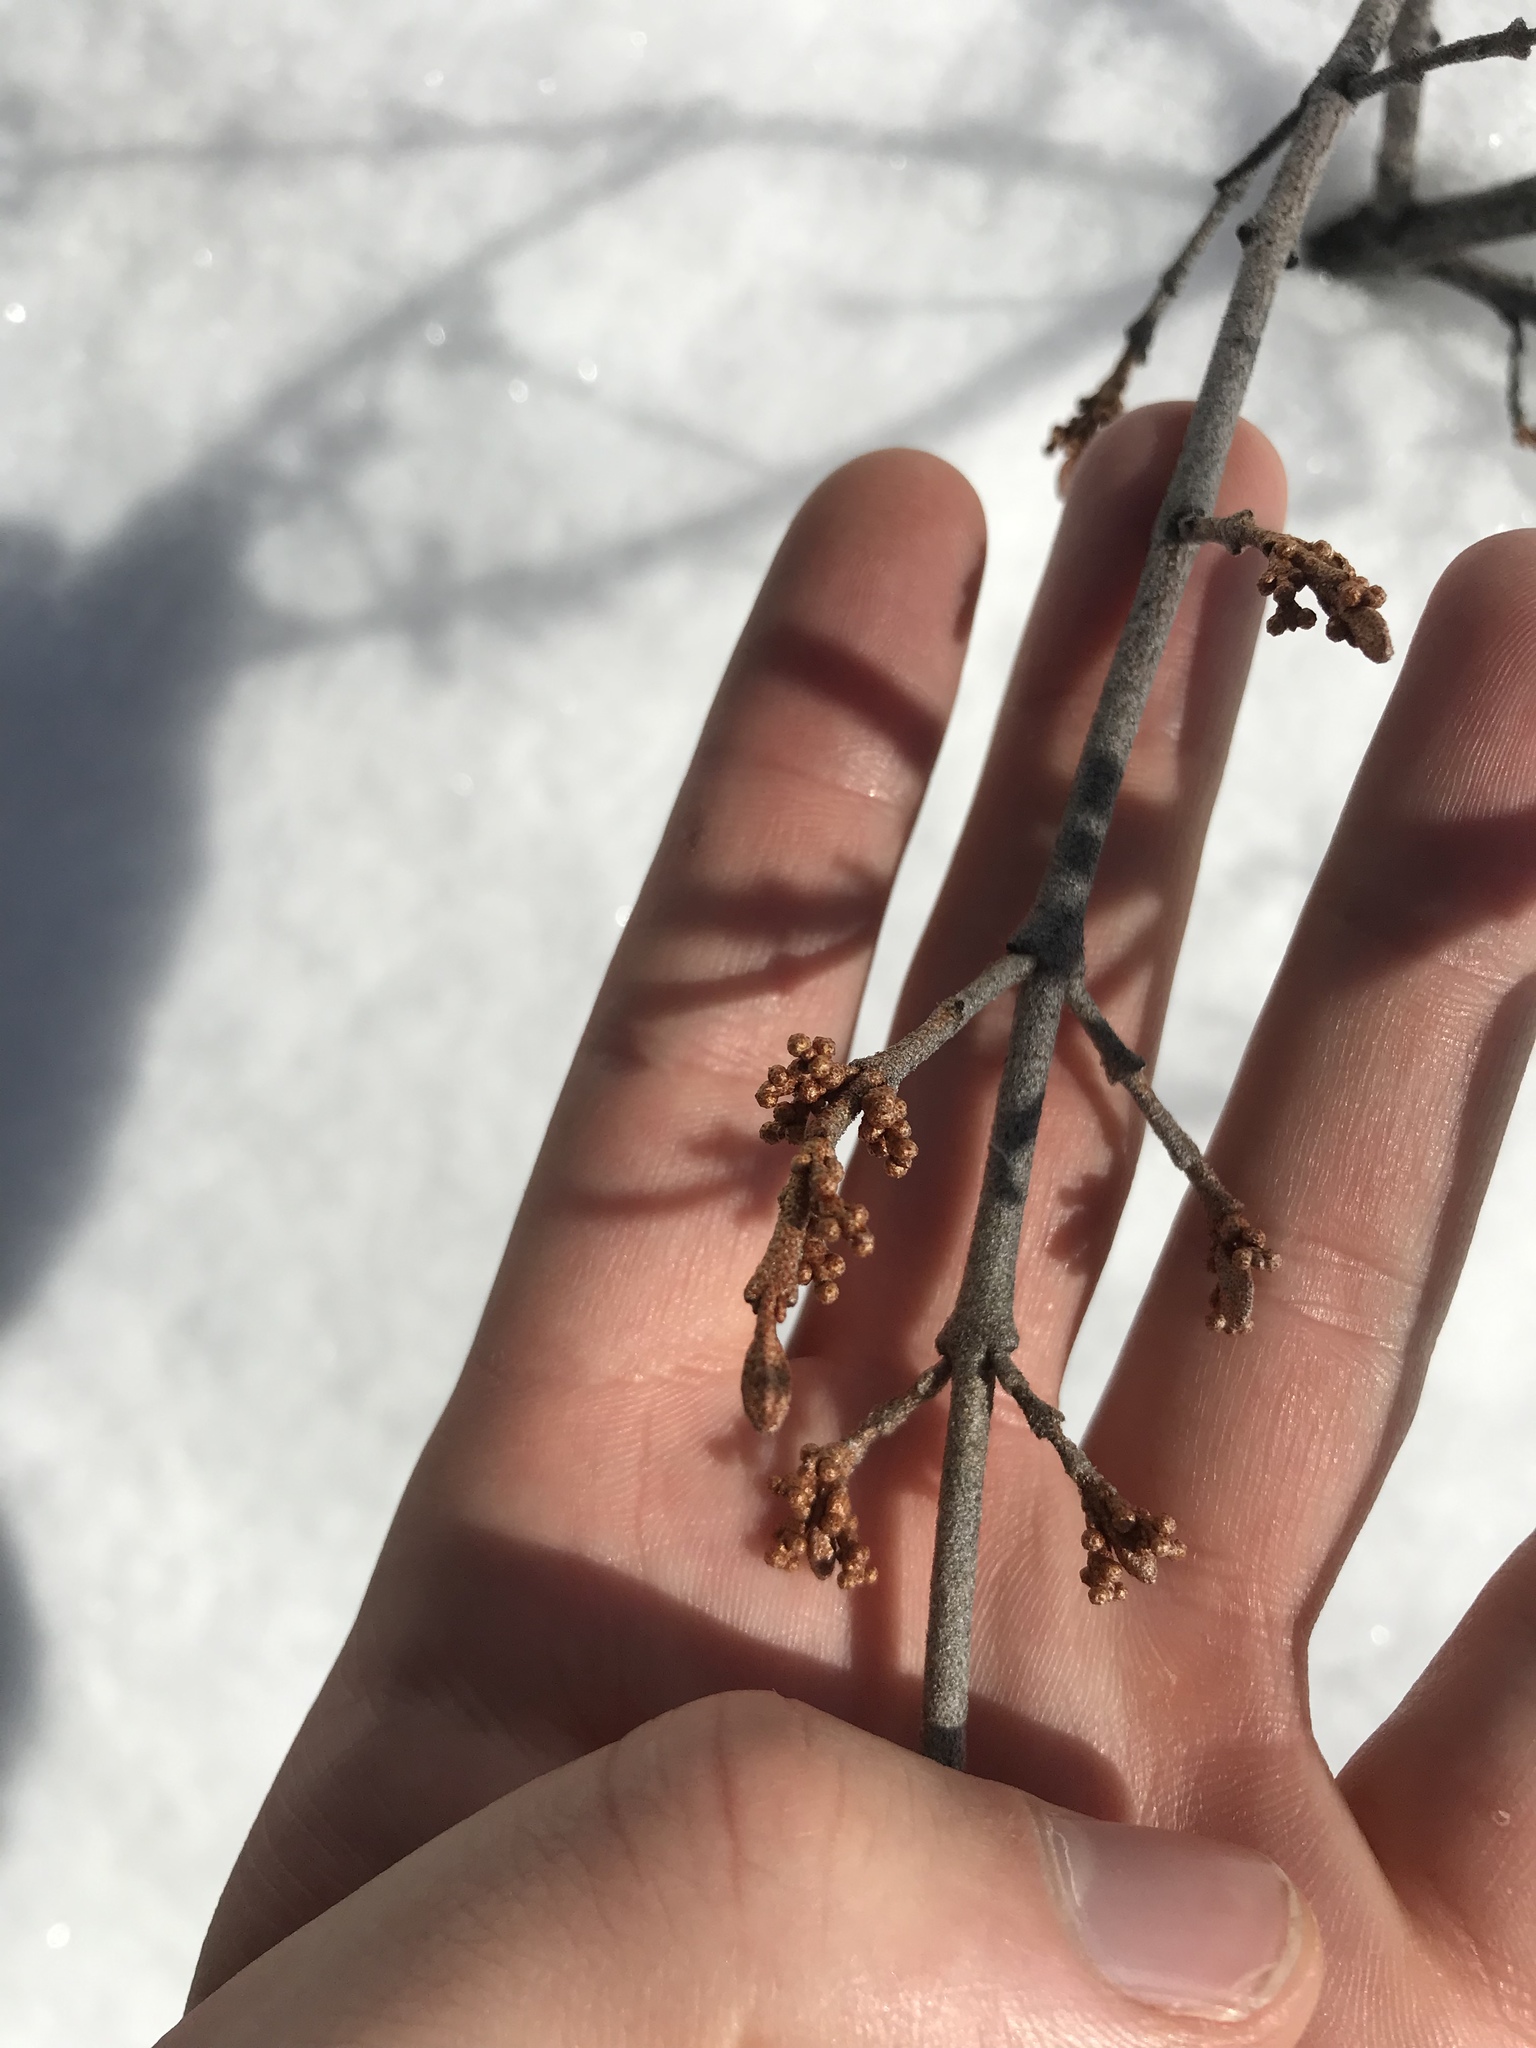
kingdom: Plantae
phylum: Tracheophyta
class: Magnoliopsida
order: Rosales
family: Elaeagnaceae
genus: Shepherdia
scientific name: Shepherdia canadensis
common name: Soapberry
